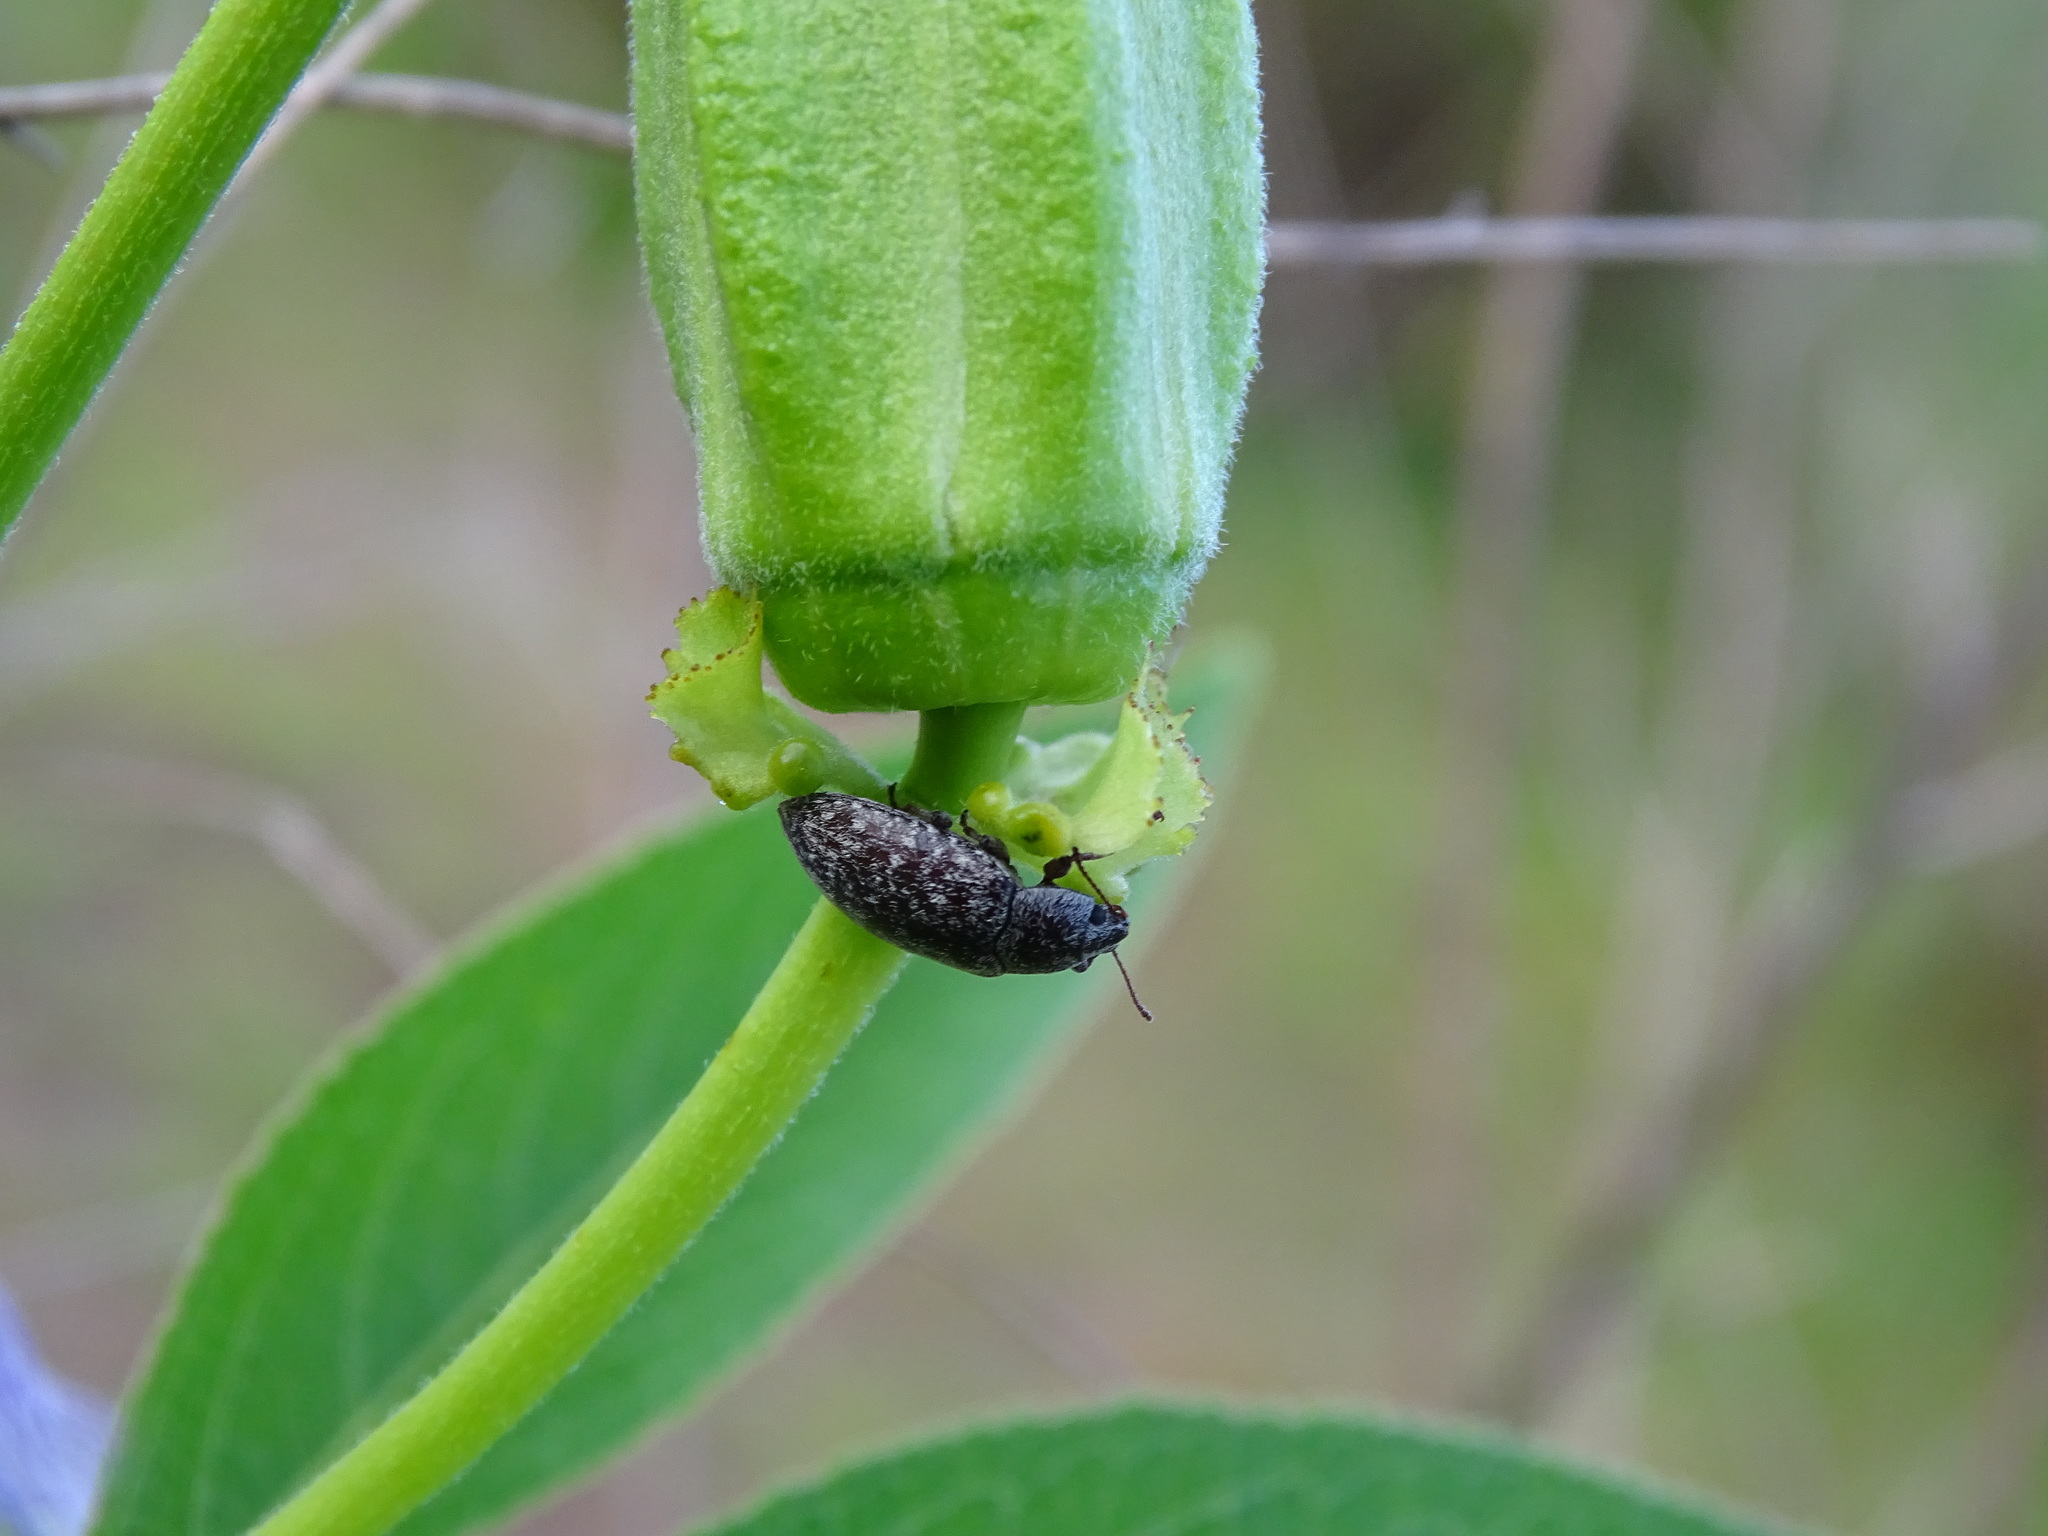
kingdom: Animalia
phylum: Arthropoda
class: Insecta
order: Coleoptera
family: Tenebrionidae
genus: Epitragodes
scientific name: Epitragodes tomentosus
